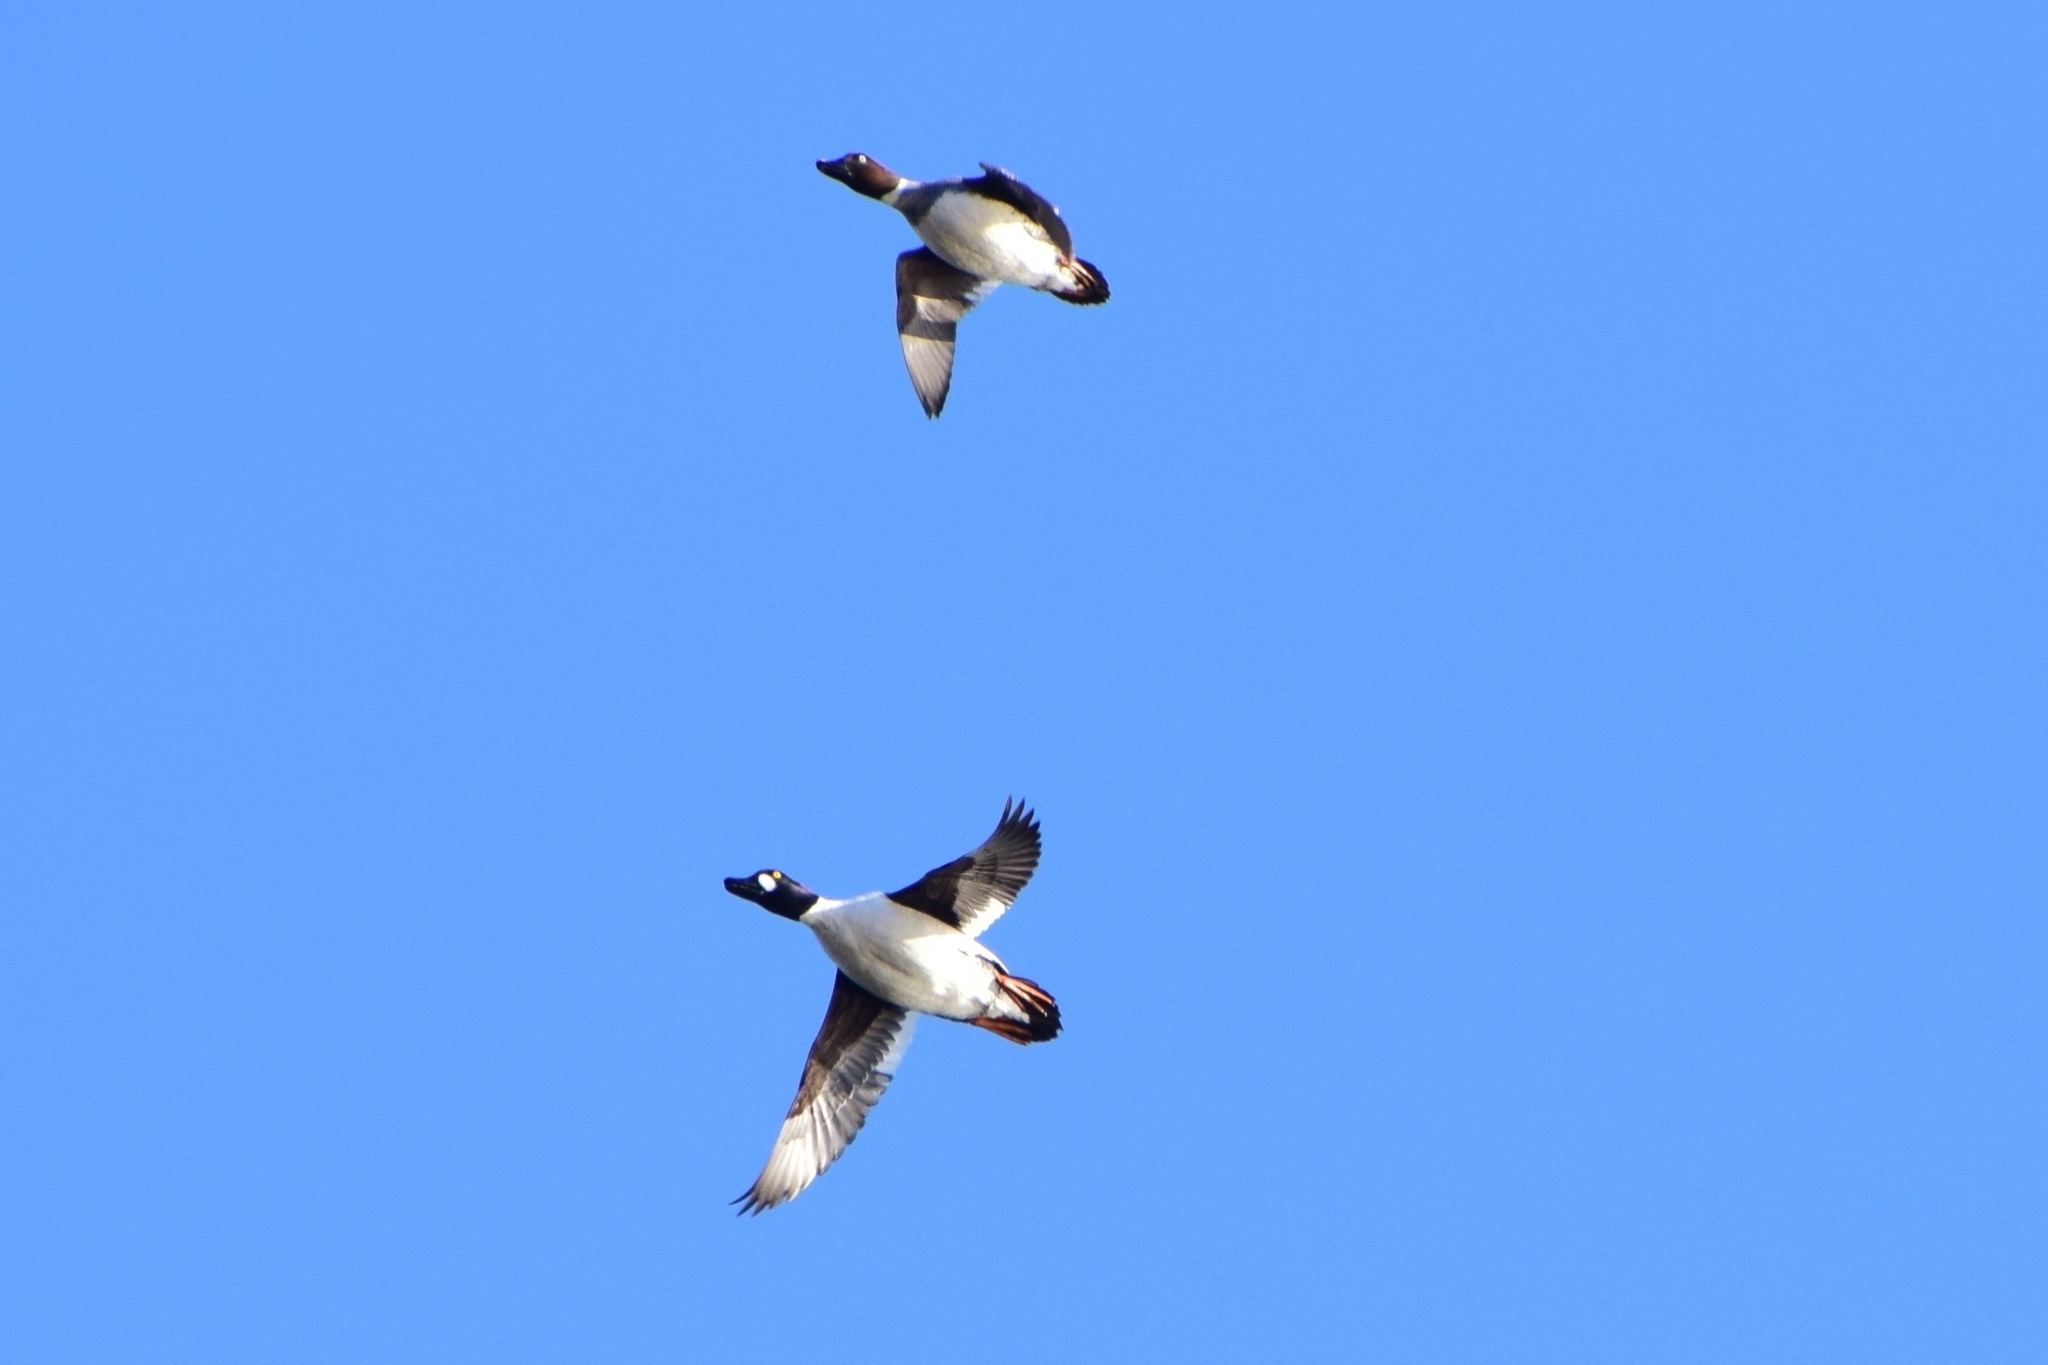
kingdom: Animalia
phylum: Chordata
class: Aves
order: Anseriformes
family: Anatidae
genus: Bucephala
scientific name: Bucephala clangula
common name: Common goldeneye
